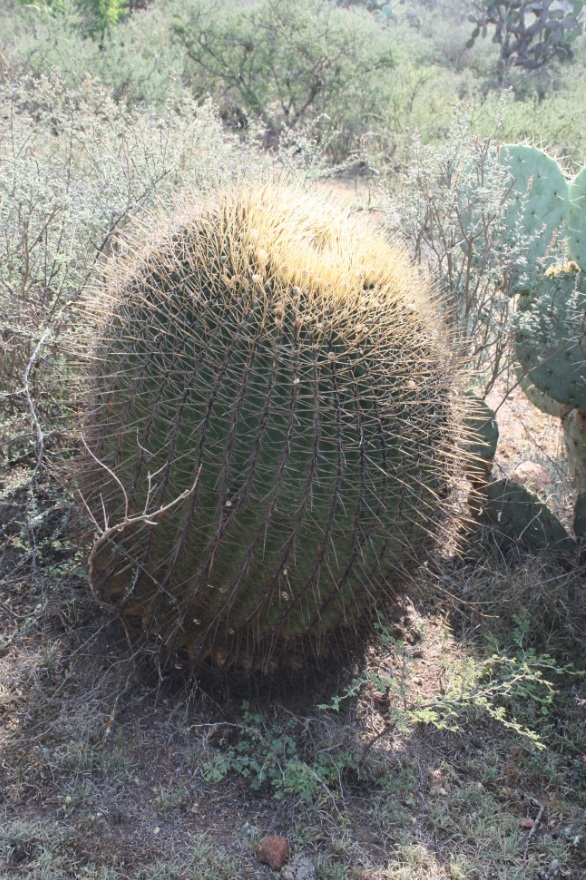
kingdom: Plantae
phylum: Tracheophyta
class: Magnoliopsida
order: Caryophyllales
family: Cactaceae
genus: Bisnaga
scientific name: Bisnaga histrix
